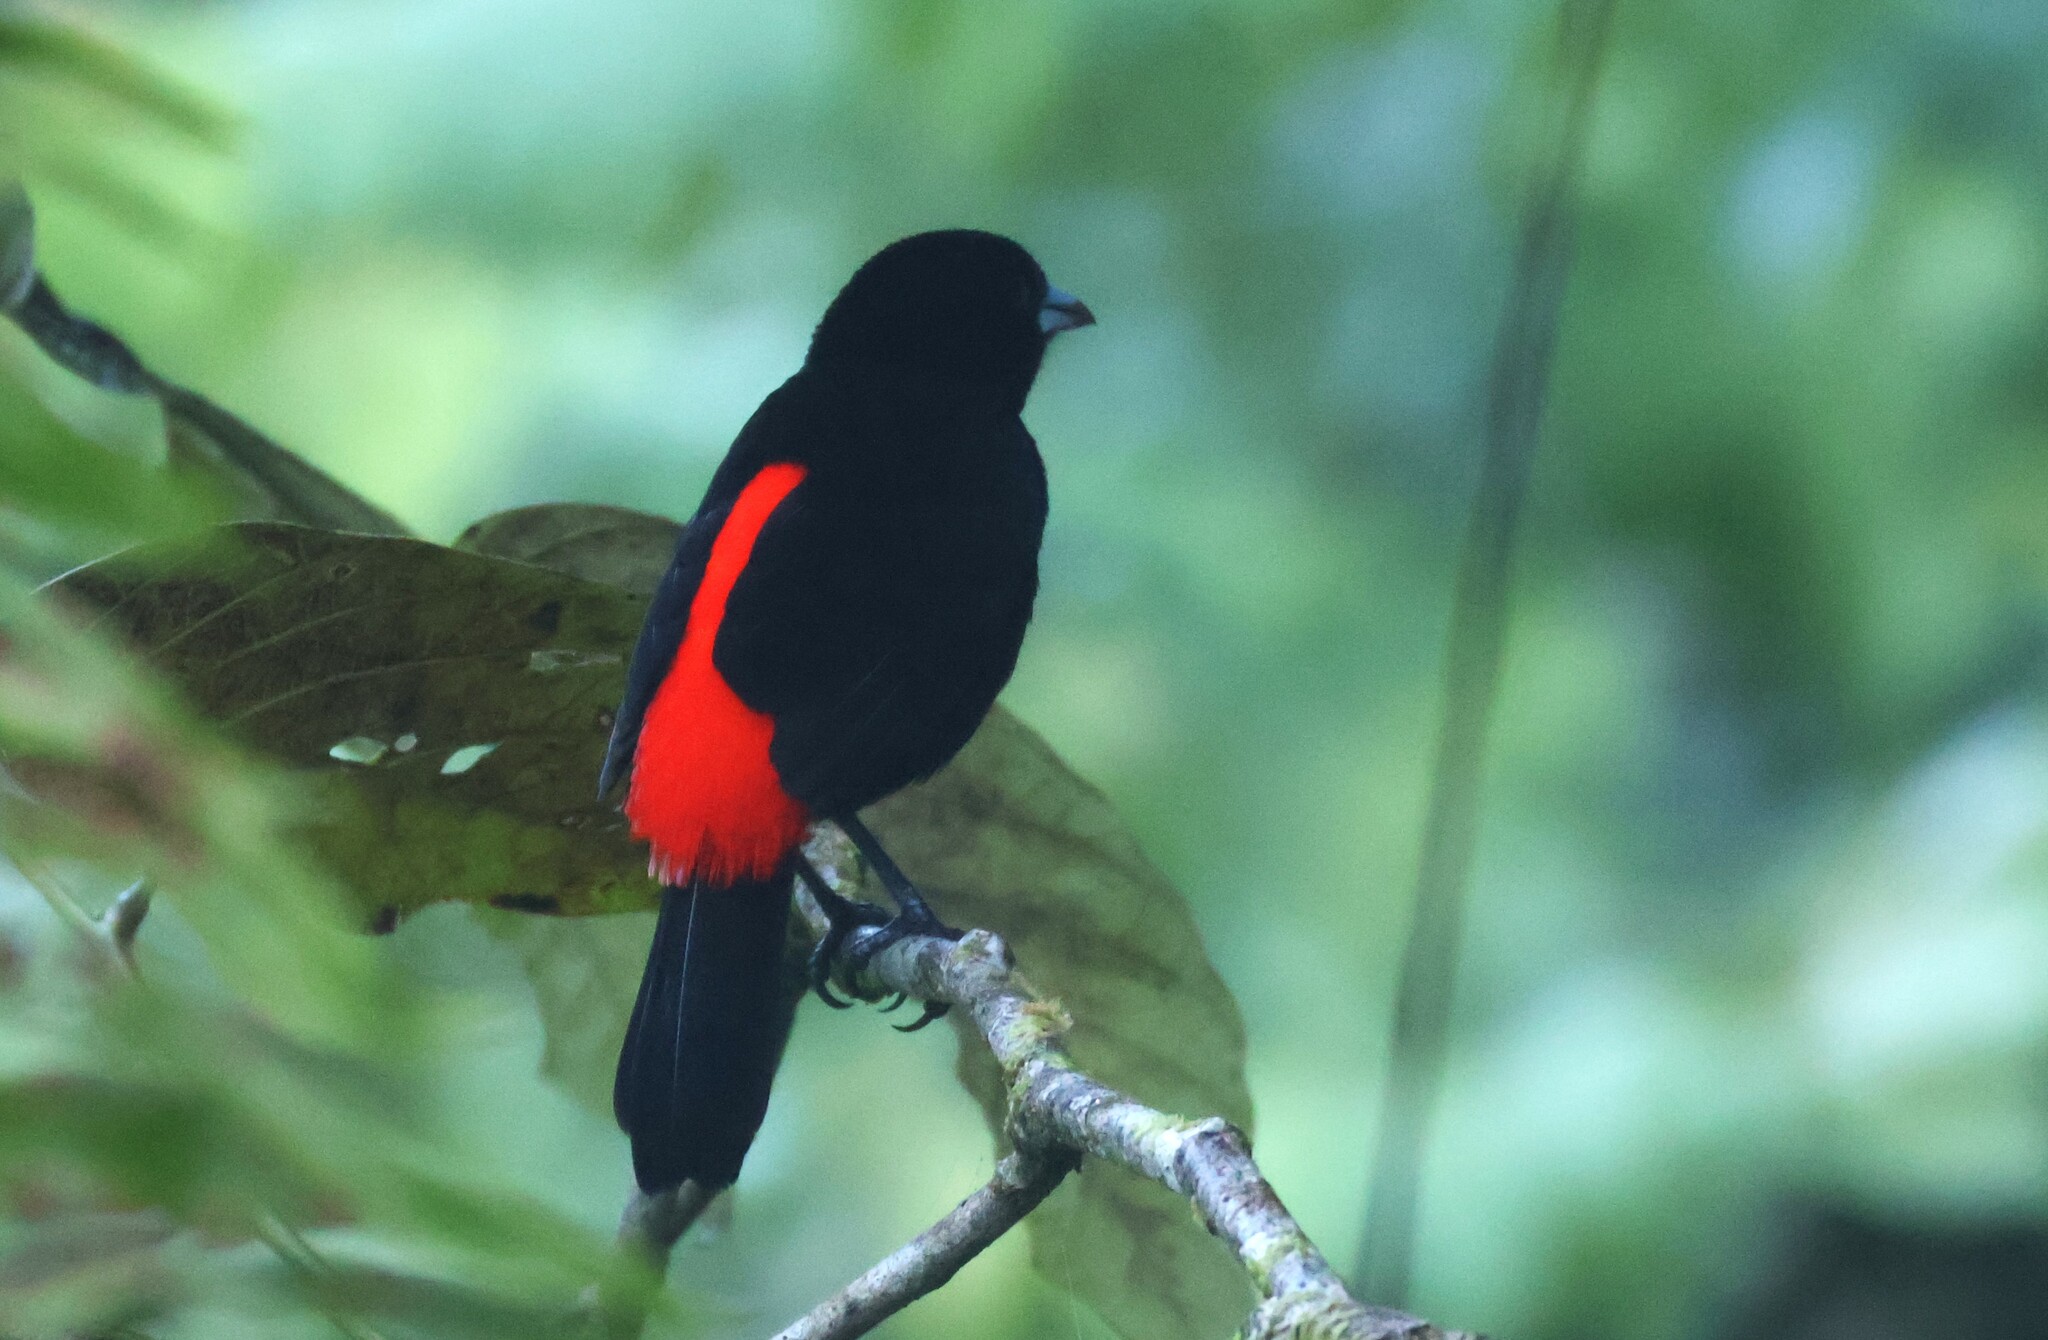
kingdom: Animalia
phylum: Chordata
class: Aves
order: Passeriformes
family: Thraupidae
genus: Ramphocelus
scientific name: Ramphocelus passerinii
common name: Passerini's tanager
